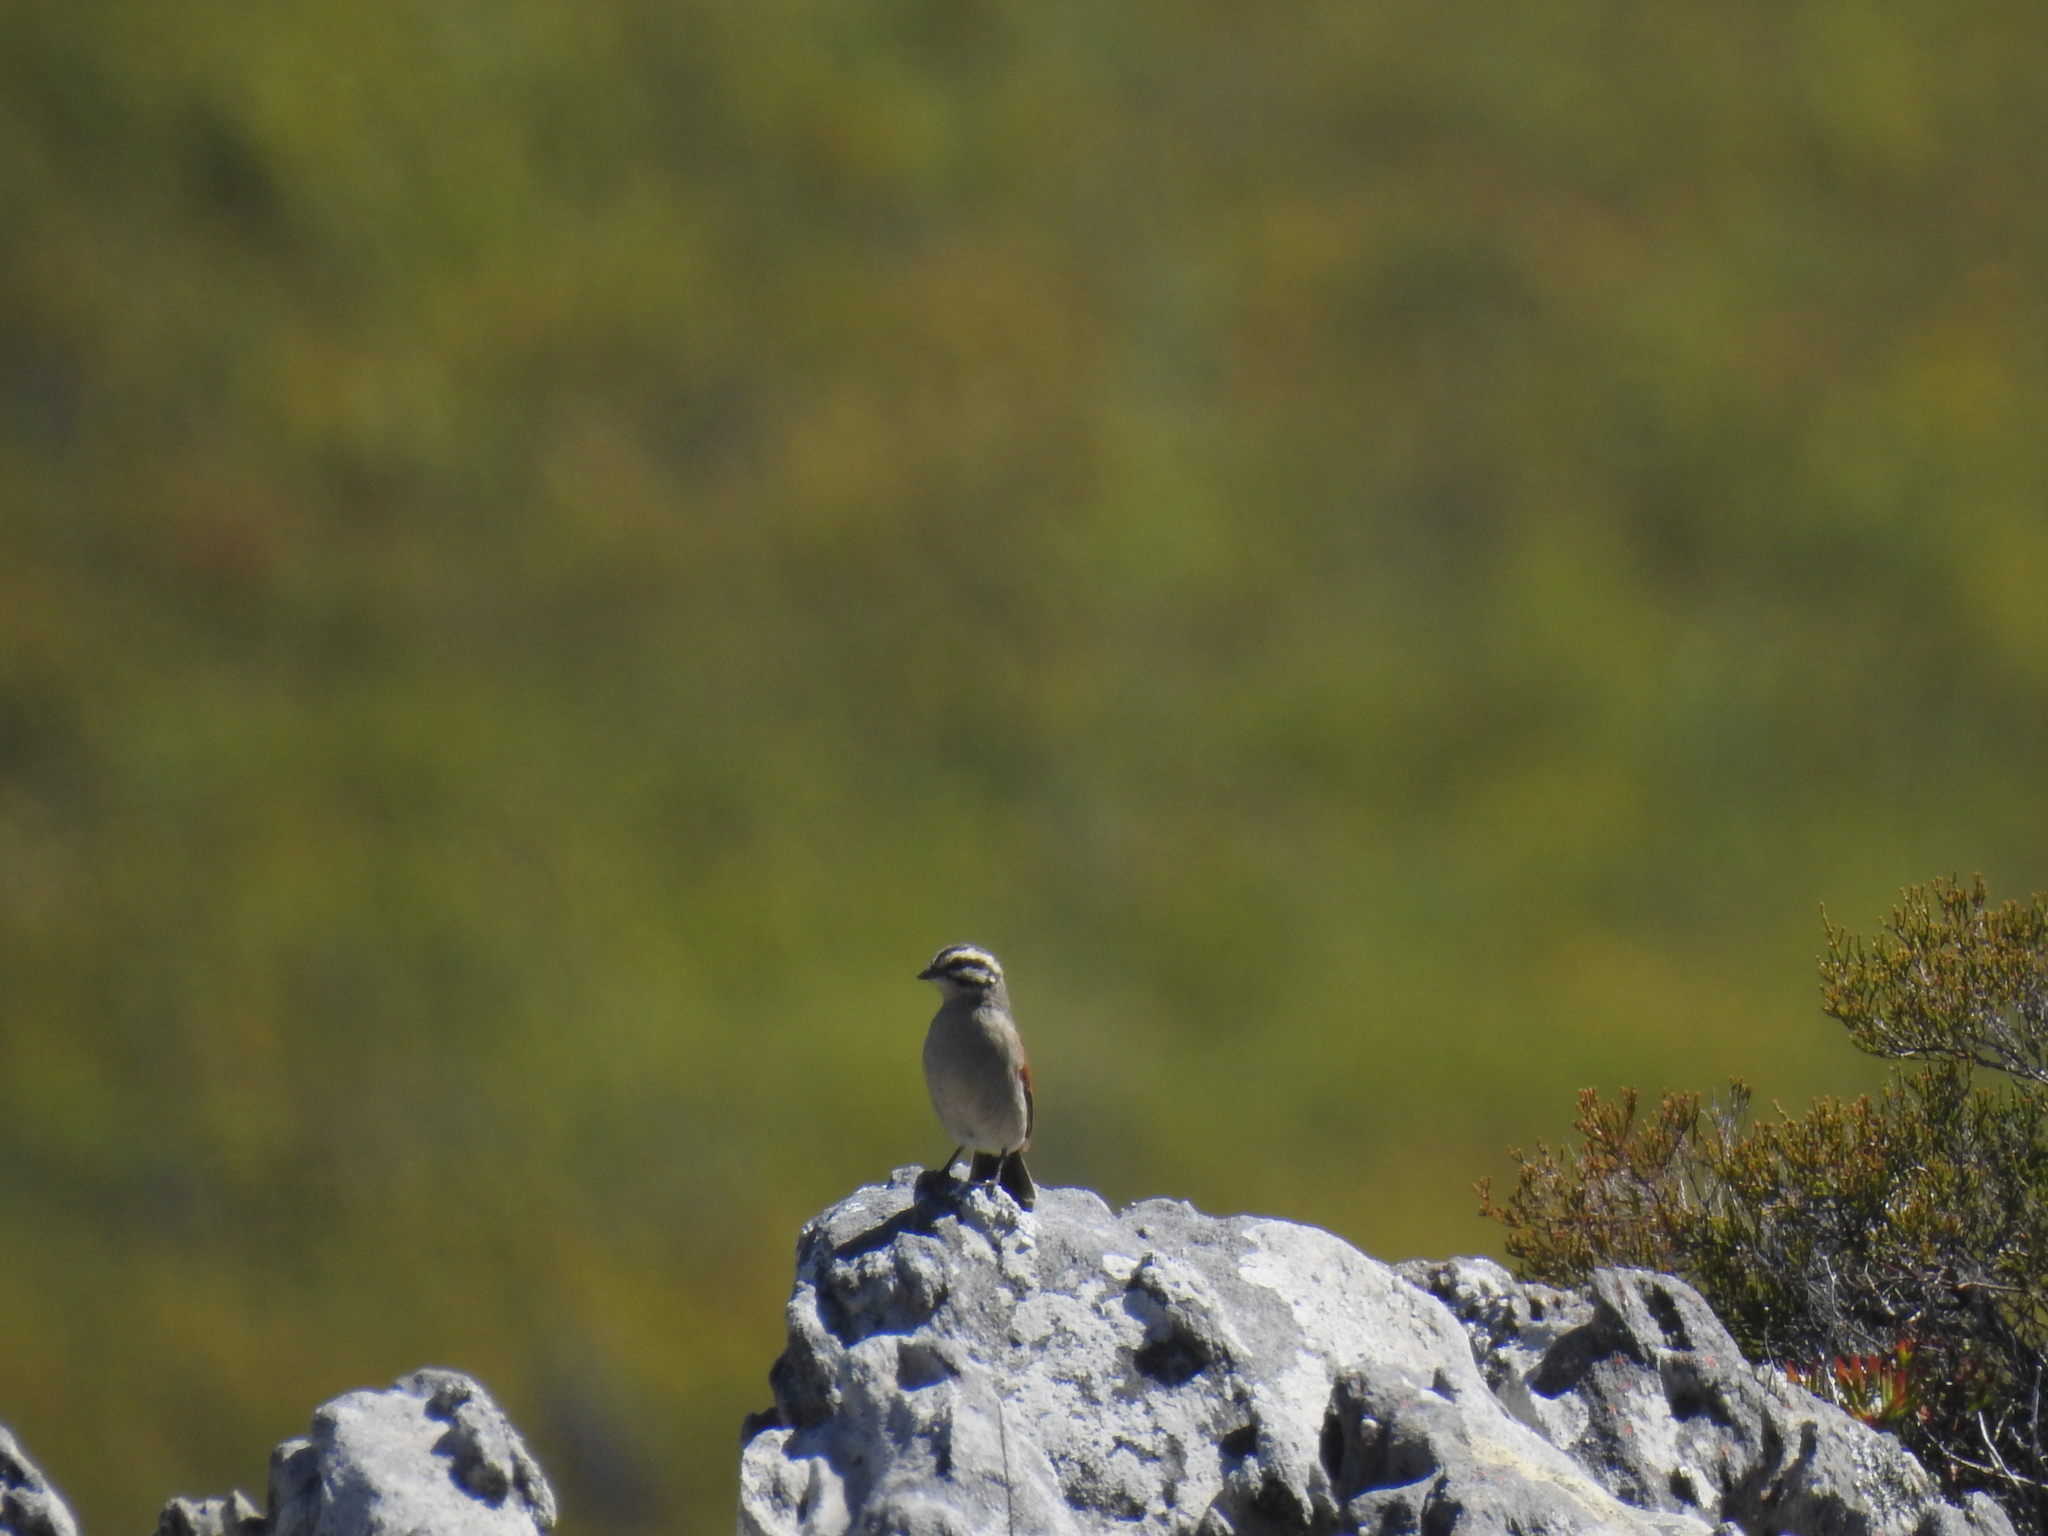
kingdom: Animalia
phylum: Chordata
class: Aves
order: Passeriformes
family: Emberizidae
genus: Emberiza
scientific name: Emberiza capensis
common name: Cape bunting
